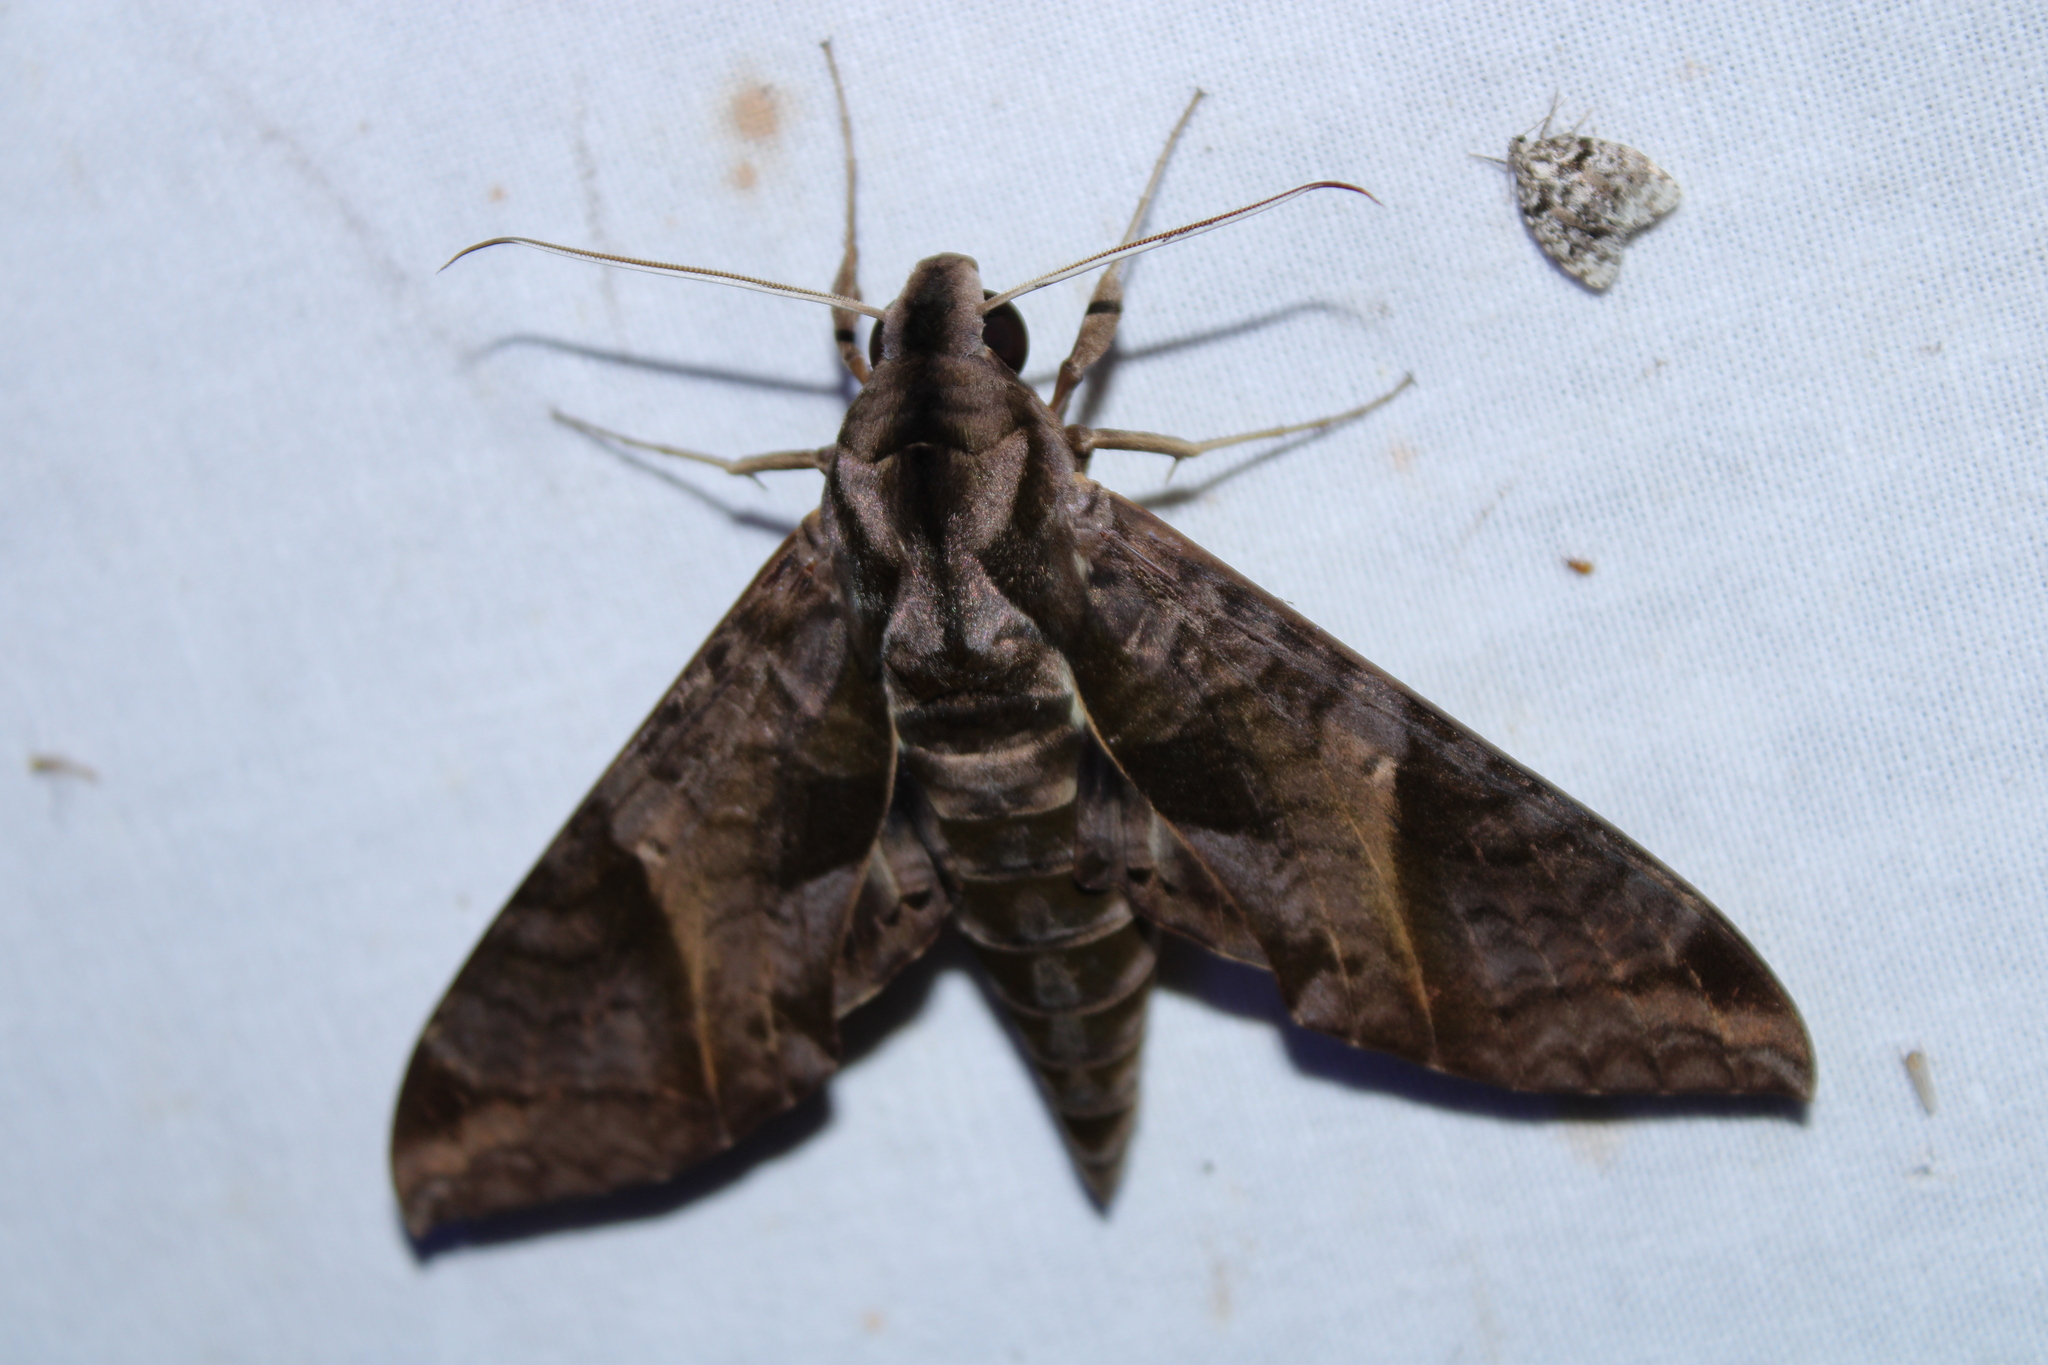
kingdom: Animalia
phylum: Arthropoda
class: Insecta
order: Lepidoptera
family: Sphingidae
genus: Eumorpha
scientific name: Eumorpha anchemolus
